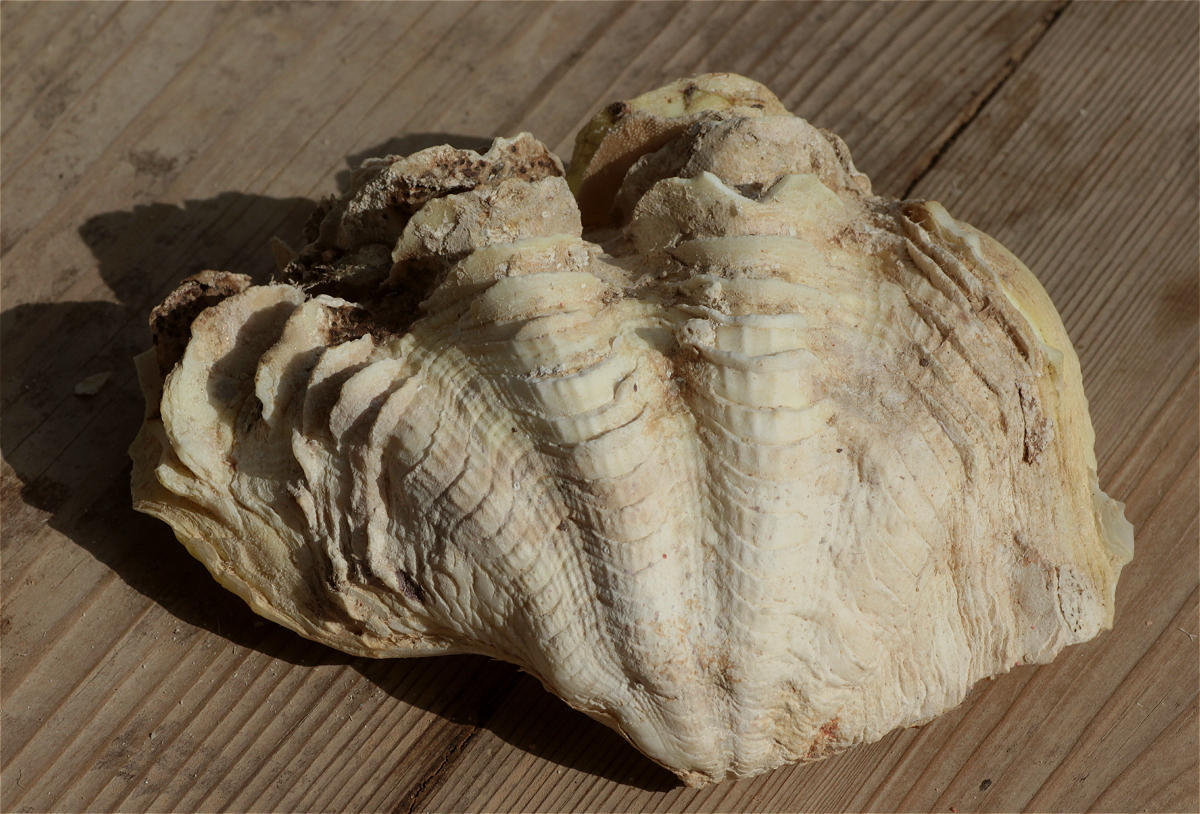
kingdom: Animalia
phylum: Mollusca
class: Bivalvia
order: Cardiida
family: Cardiidae
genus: Tridacna
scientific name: Tridacna maxima
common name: Small giant clam
